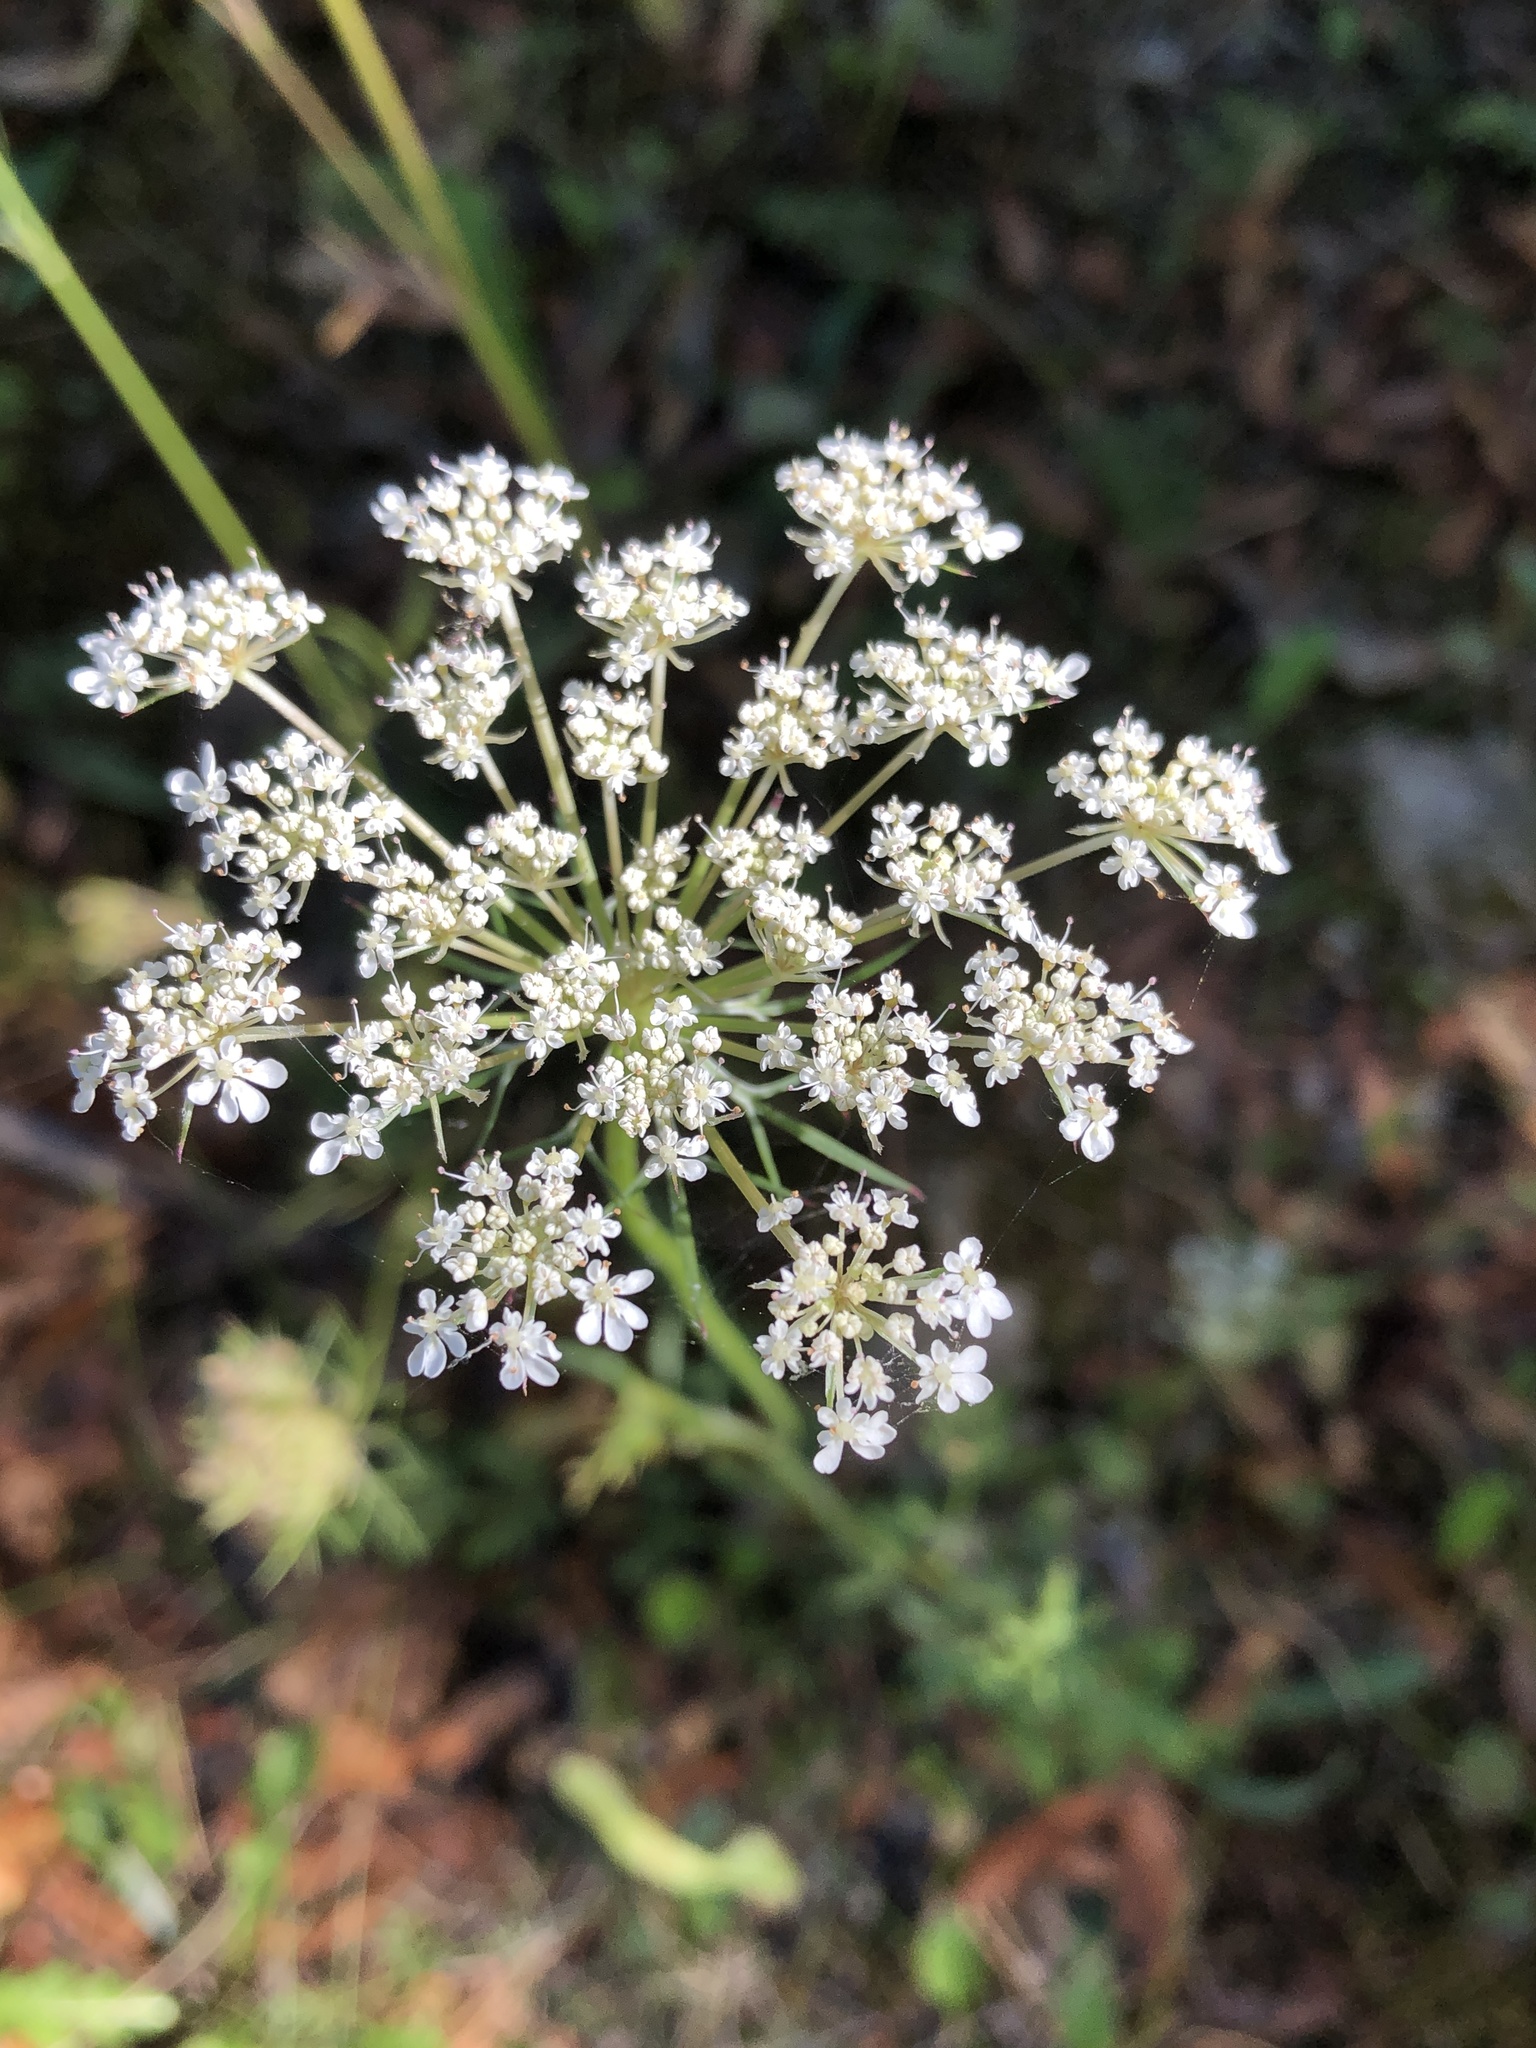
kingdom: Plantae
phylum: Tracheophyta
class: Magnoliopsida
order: Apiales
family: Apiaceae
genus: Daucus
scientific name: Daucus carota
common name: Wild carrot
